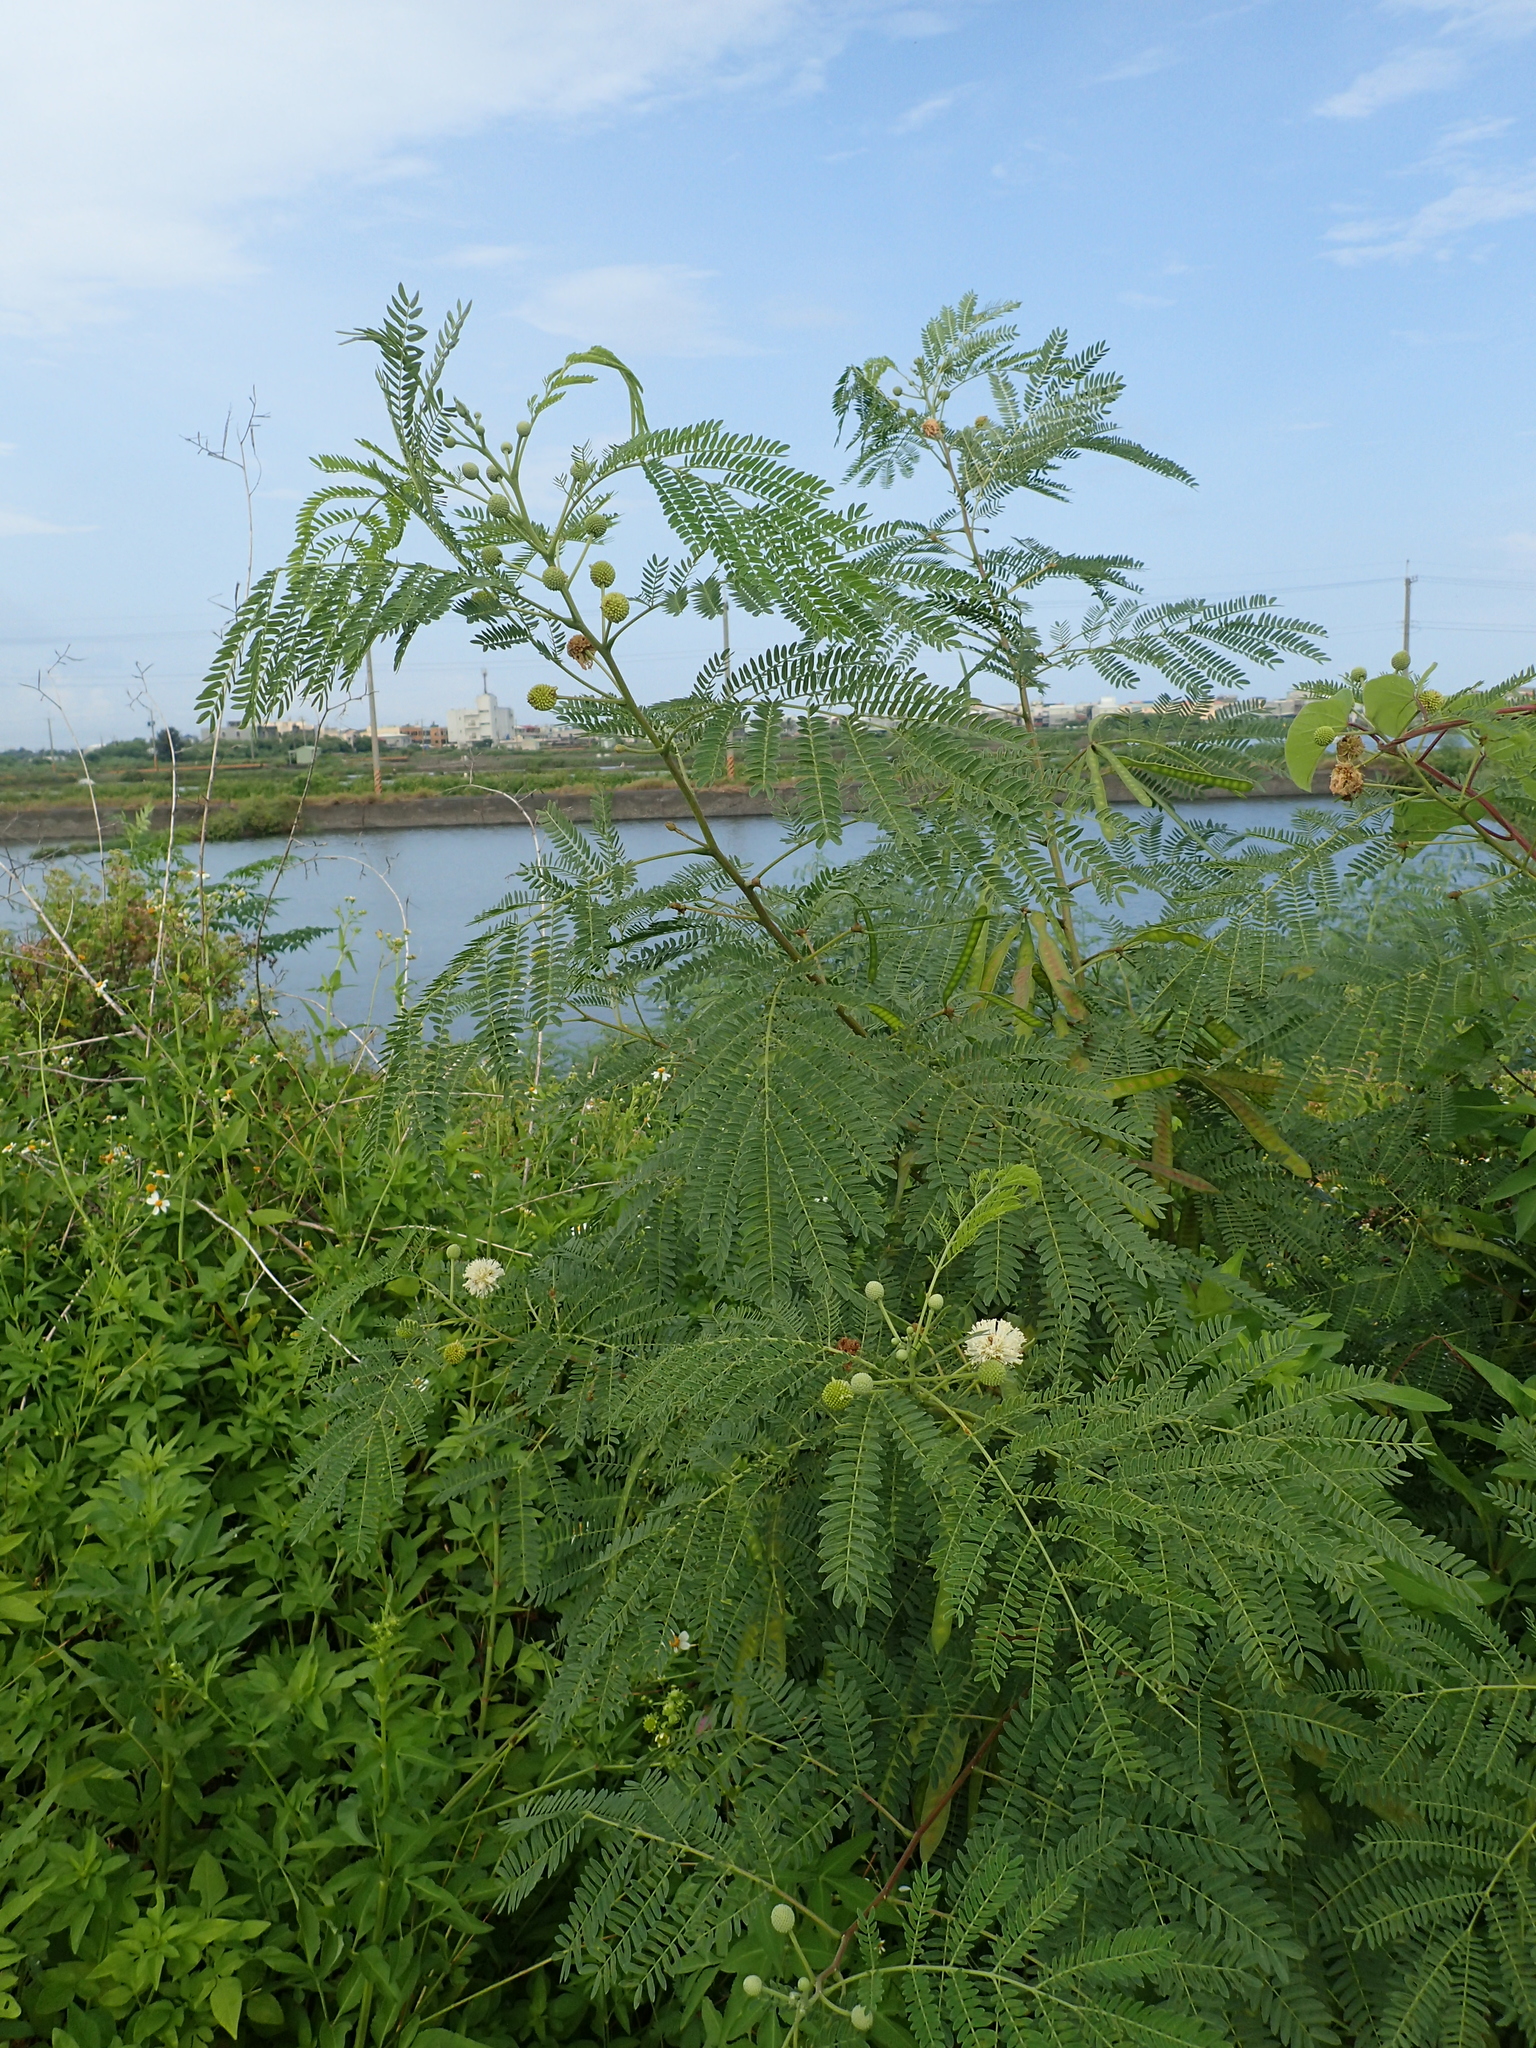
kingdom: Plantae
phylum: Tracheophyta
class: Magnoliopsida
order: Fabales
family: Fabaceae
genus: Leucaena
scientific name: Leucaena leucocephala
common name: White leadtree
